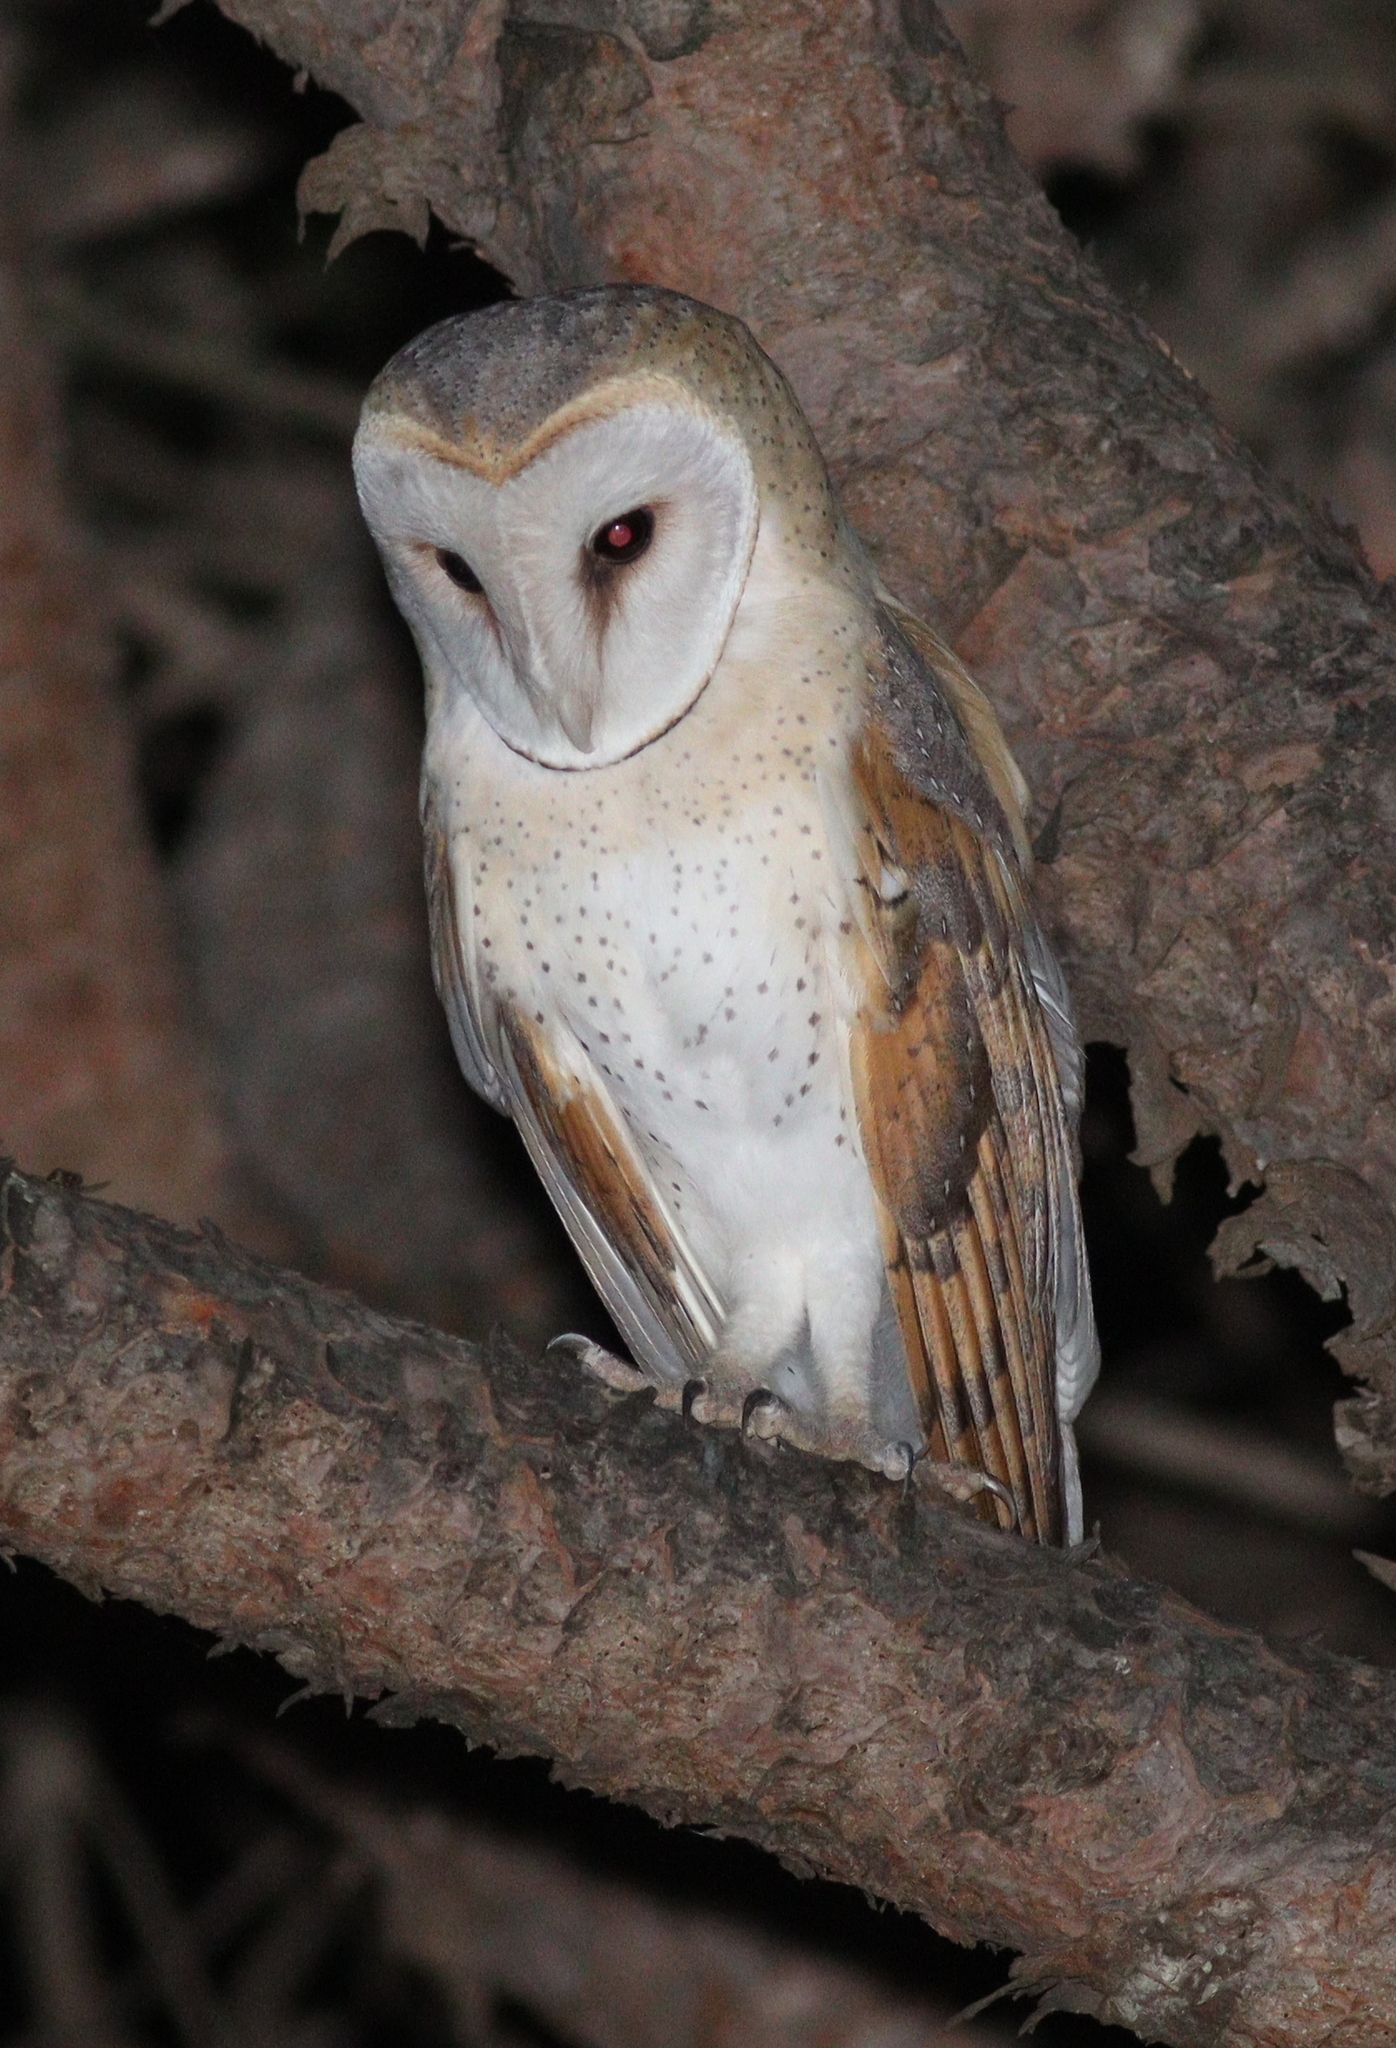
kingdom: Animalia
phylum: Chordata
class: Aves
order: Strigiformes
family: Tytonidae
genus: Tyto
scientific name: Tyto alba
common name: Barn owl
